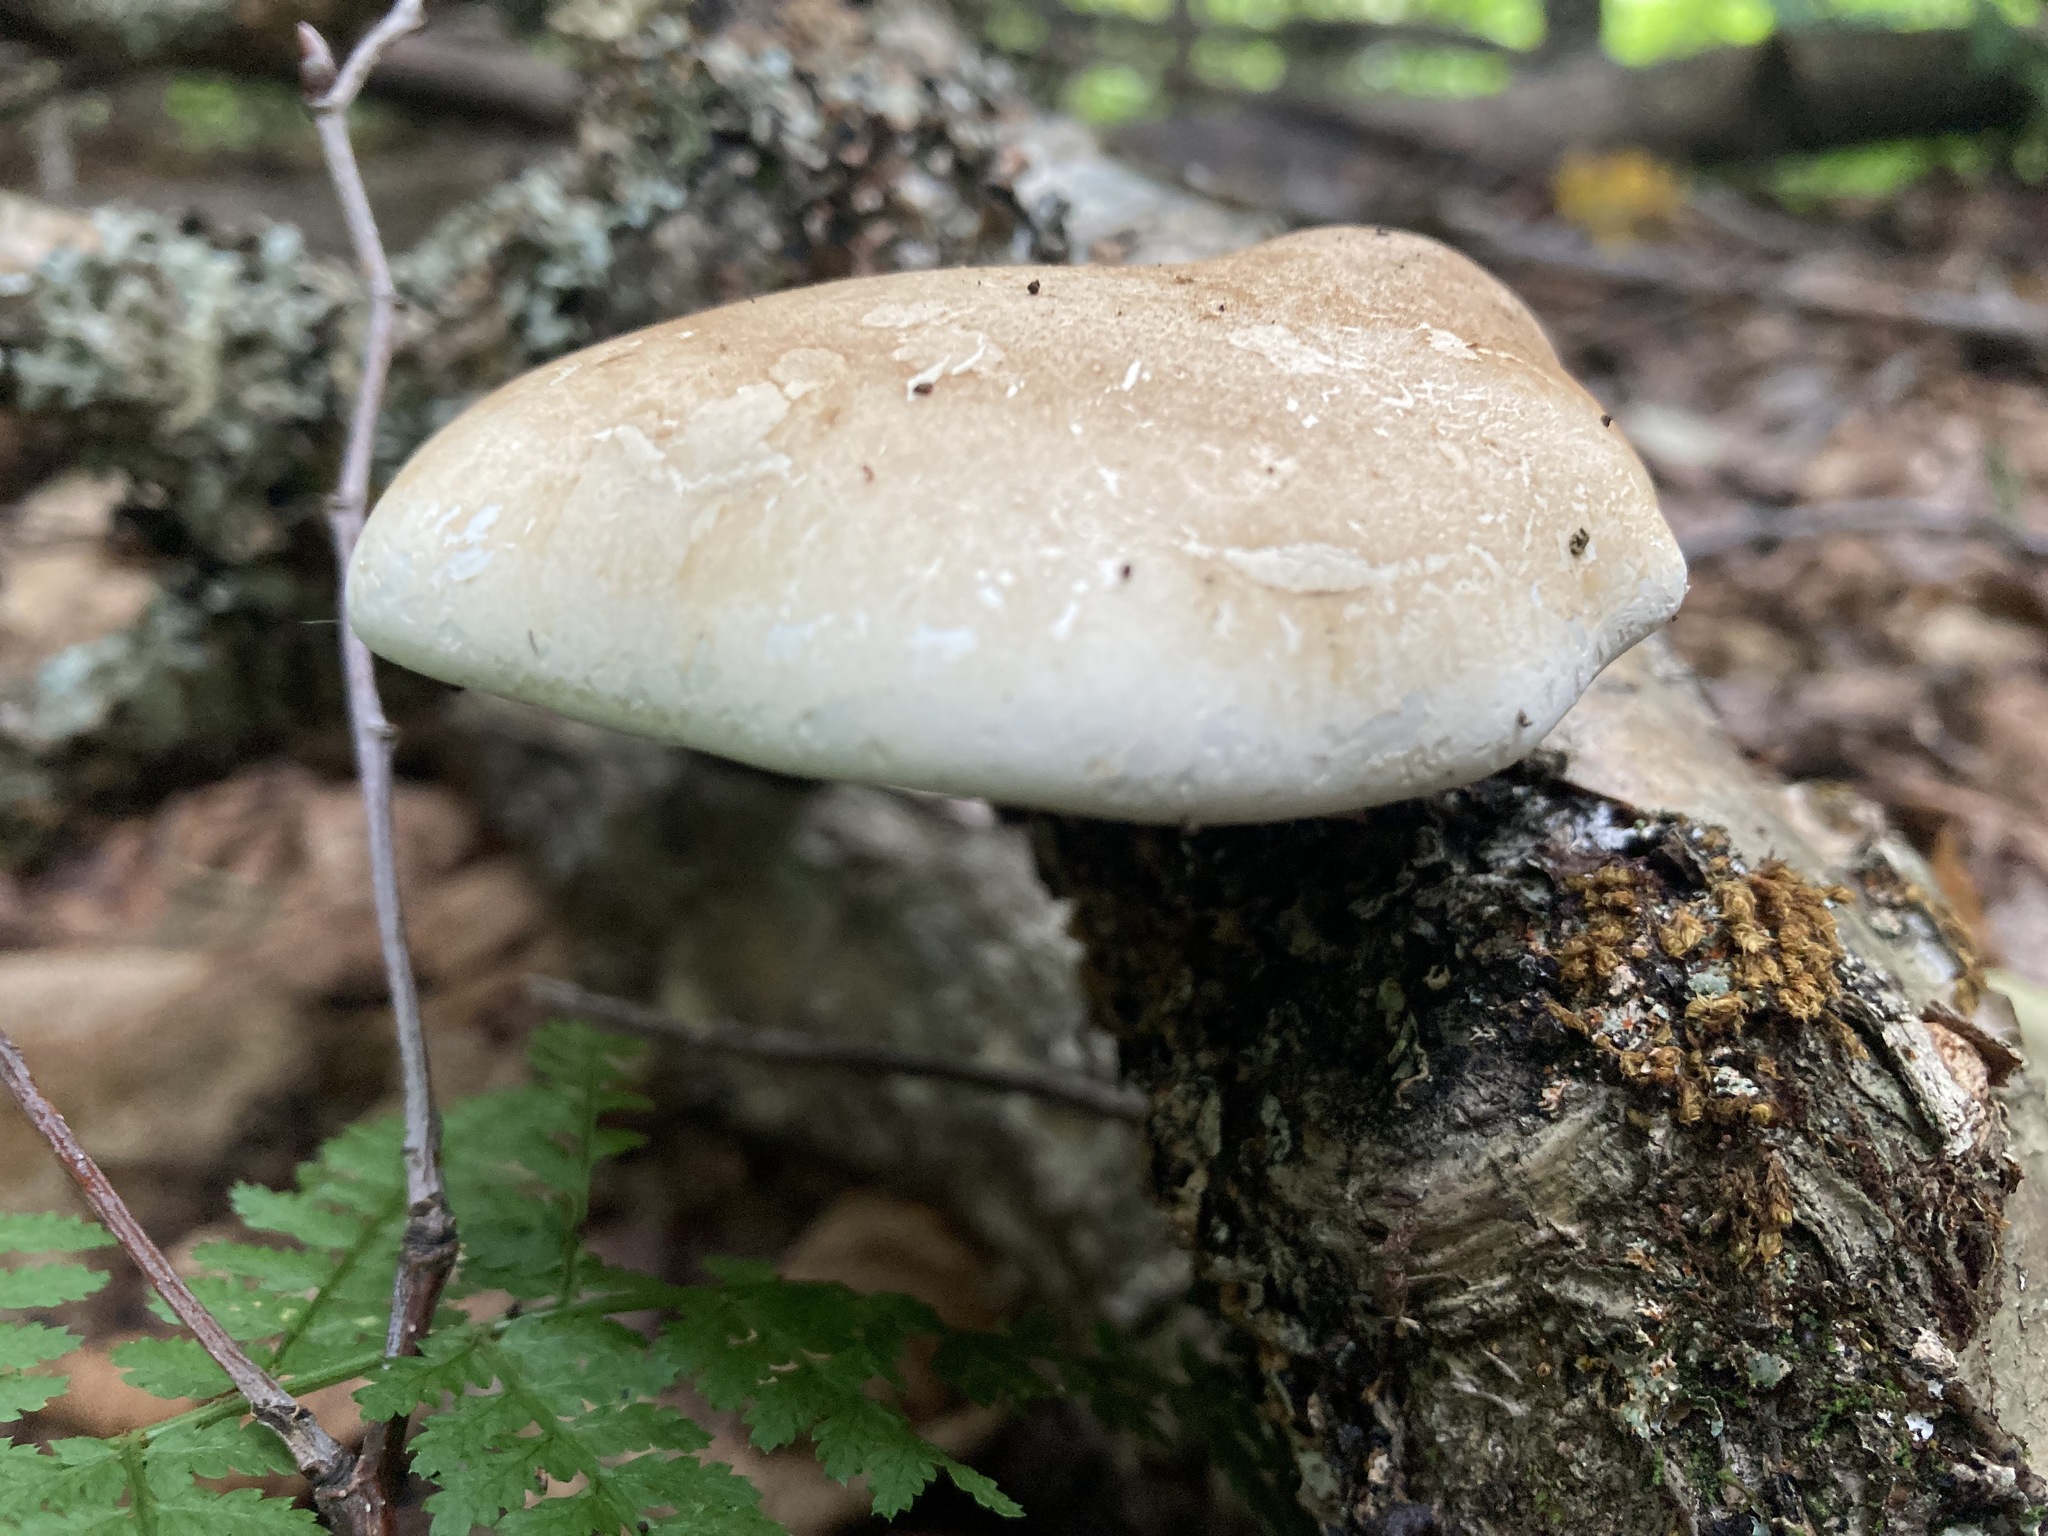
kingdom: Fungi
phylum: Basidiomycota
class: Agaricomycetes
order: Polyporales
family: Fomitopsidaceae
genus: Fomitopsis
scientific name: Fomitopsis betulina
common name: Birch polypore
